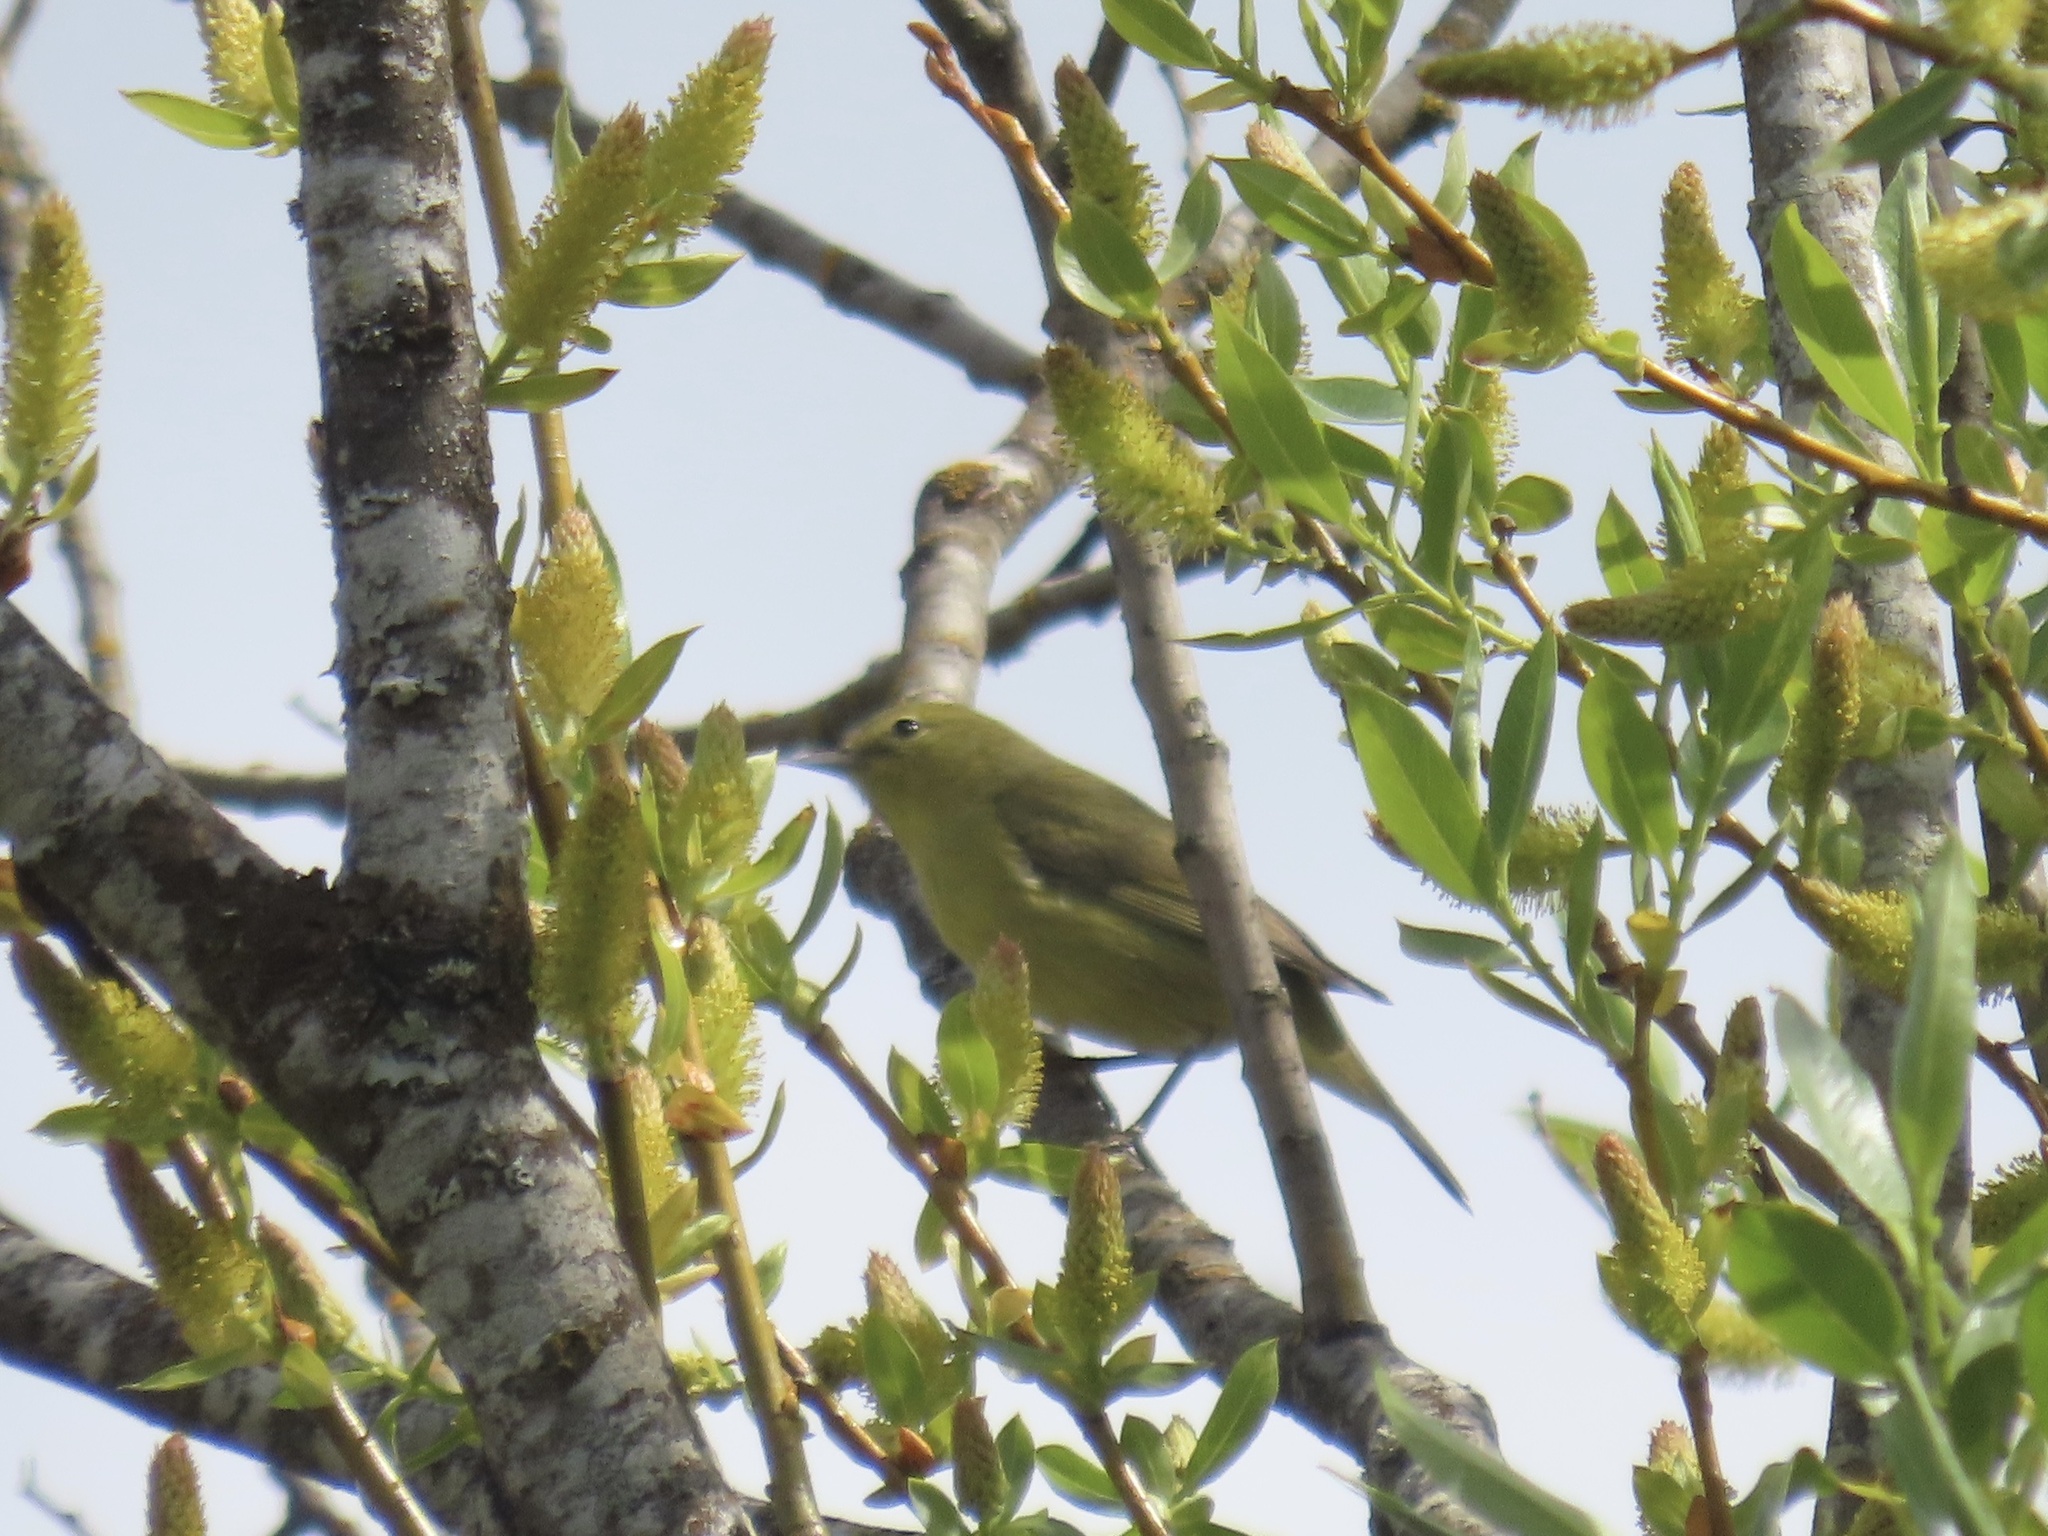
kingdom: Animalia
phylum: Chordata
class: Aves
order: Passeriformes
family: Parulidae
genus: Leiothlypis
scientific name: Leiothlypis celata
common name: Orange-crowned warbler
